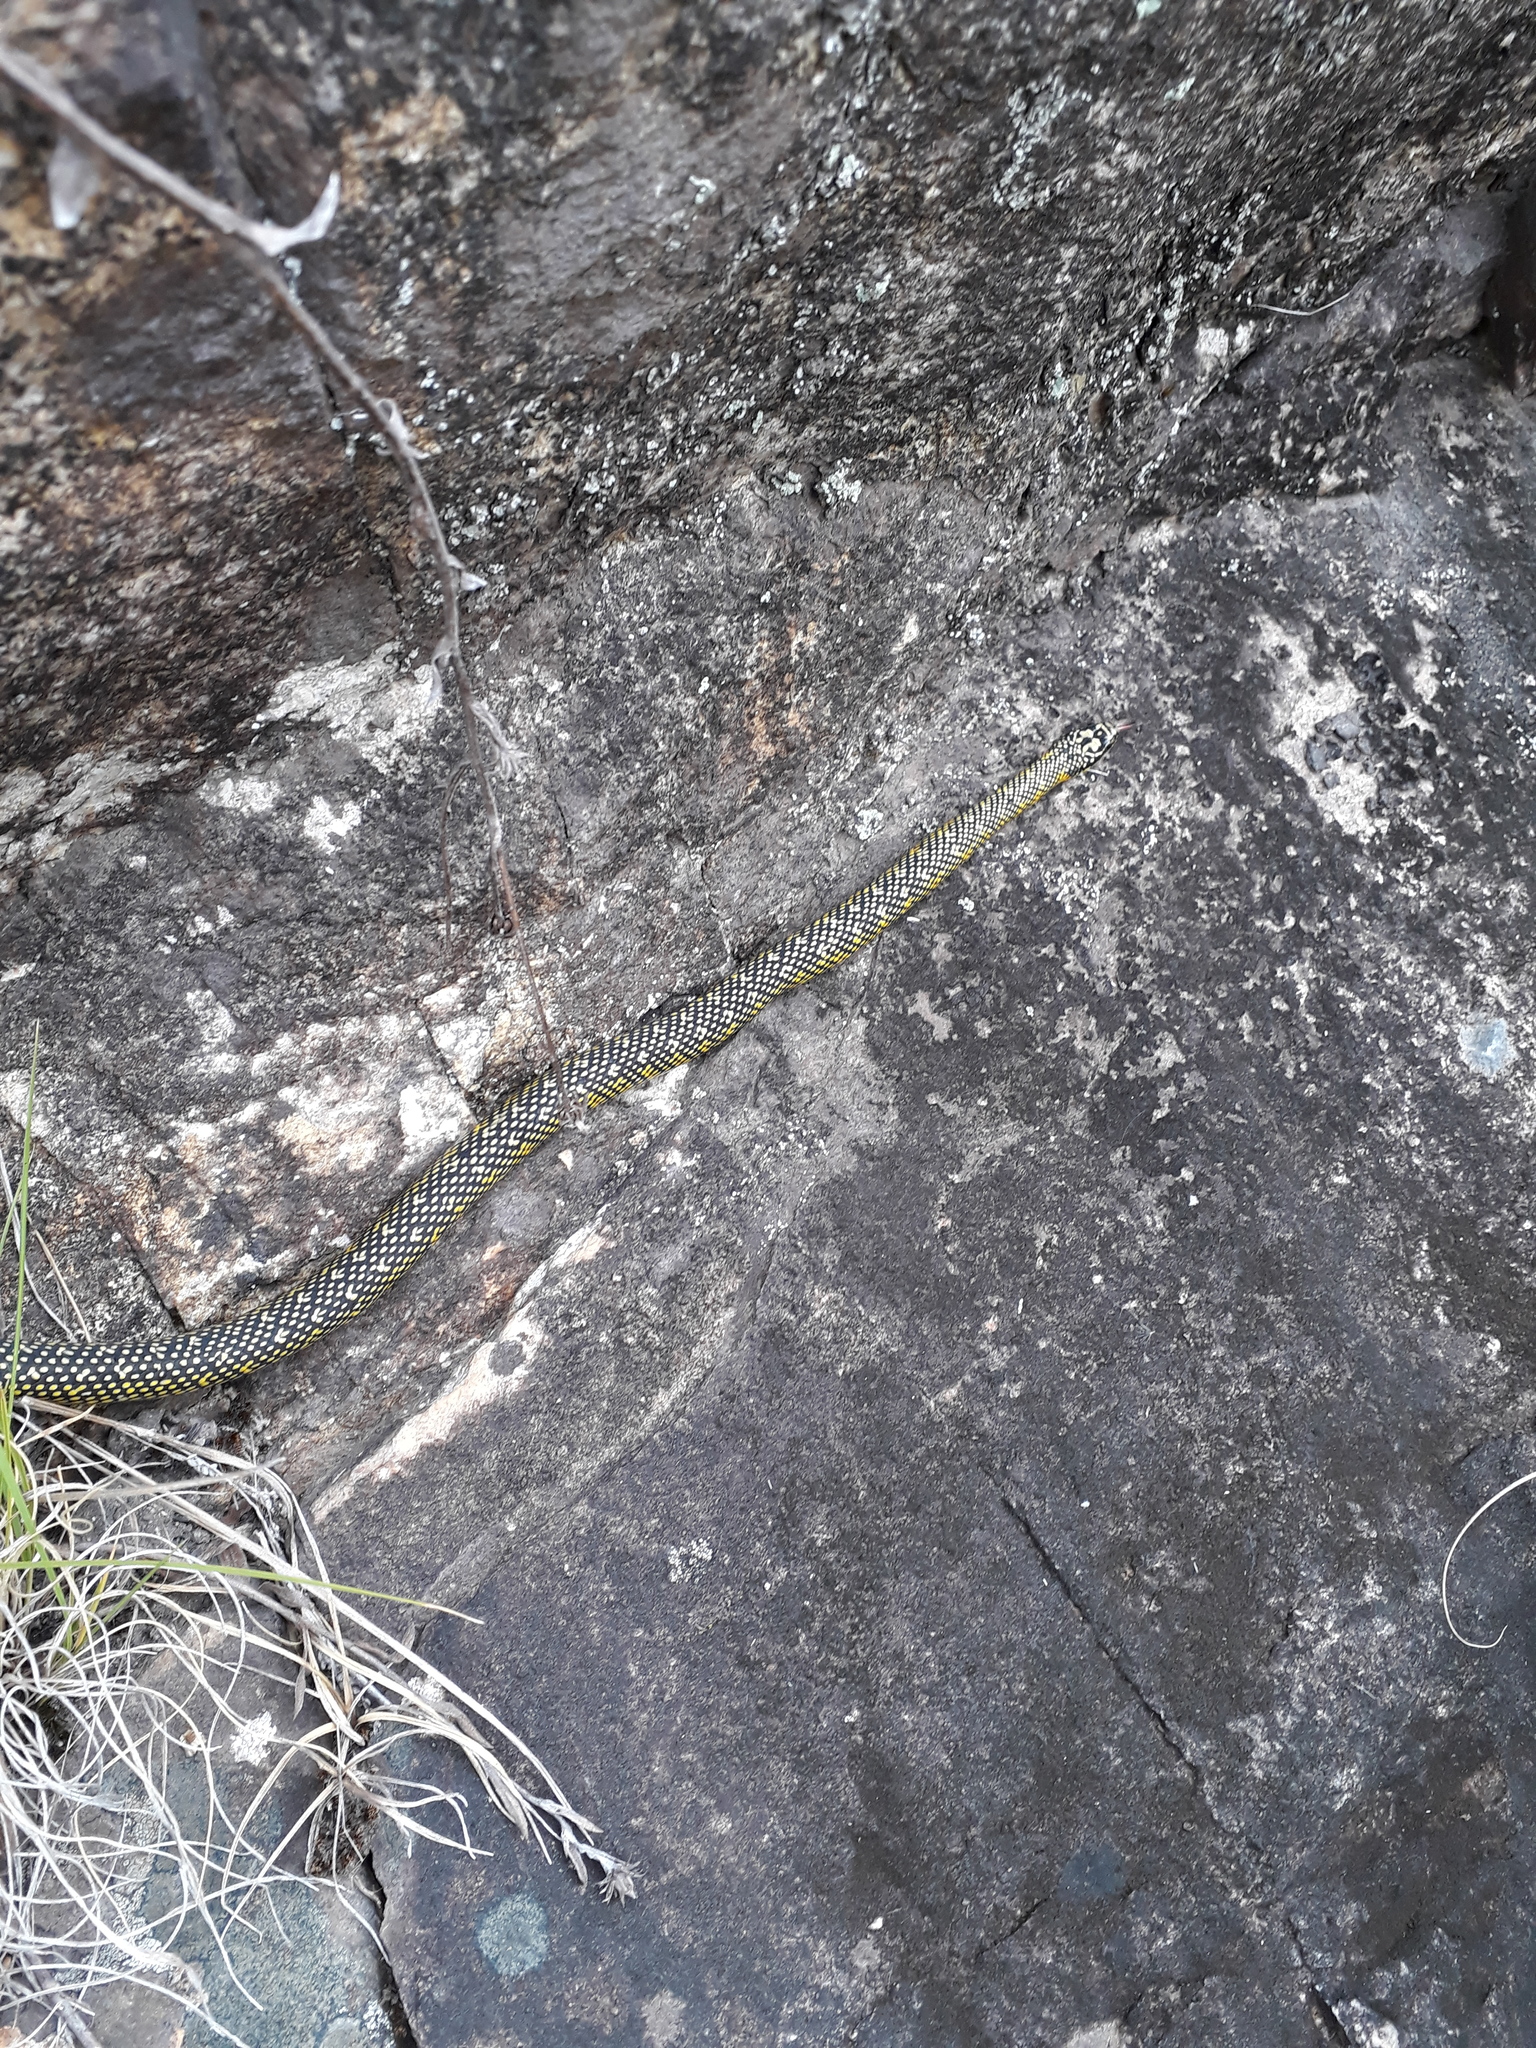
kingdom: Animalia
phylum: Chordata
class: Squamata
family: Colubridae
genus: Erythrolamprus
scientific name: Erythrolamprus poecilogyrus
